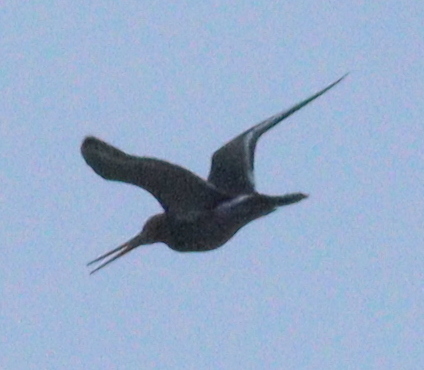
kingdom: Animalia
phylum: Chordata
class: Aves
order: Charadriiformes
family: Scolopacidae
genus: Limosa
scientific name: Limosa limosa
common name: Black-tailed godwit
